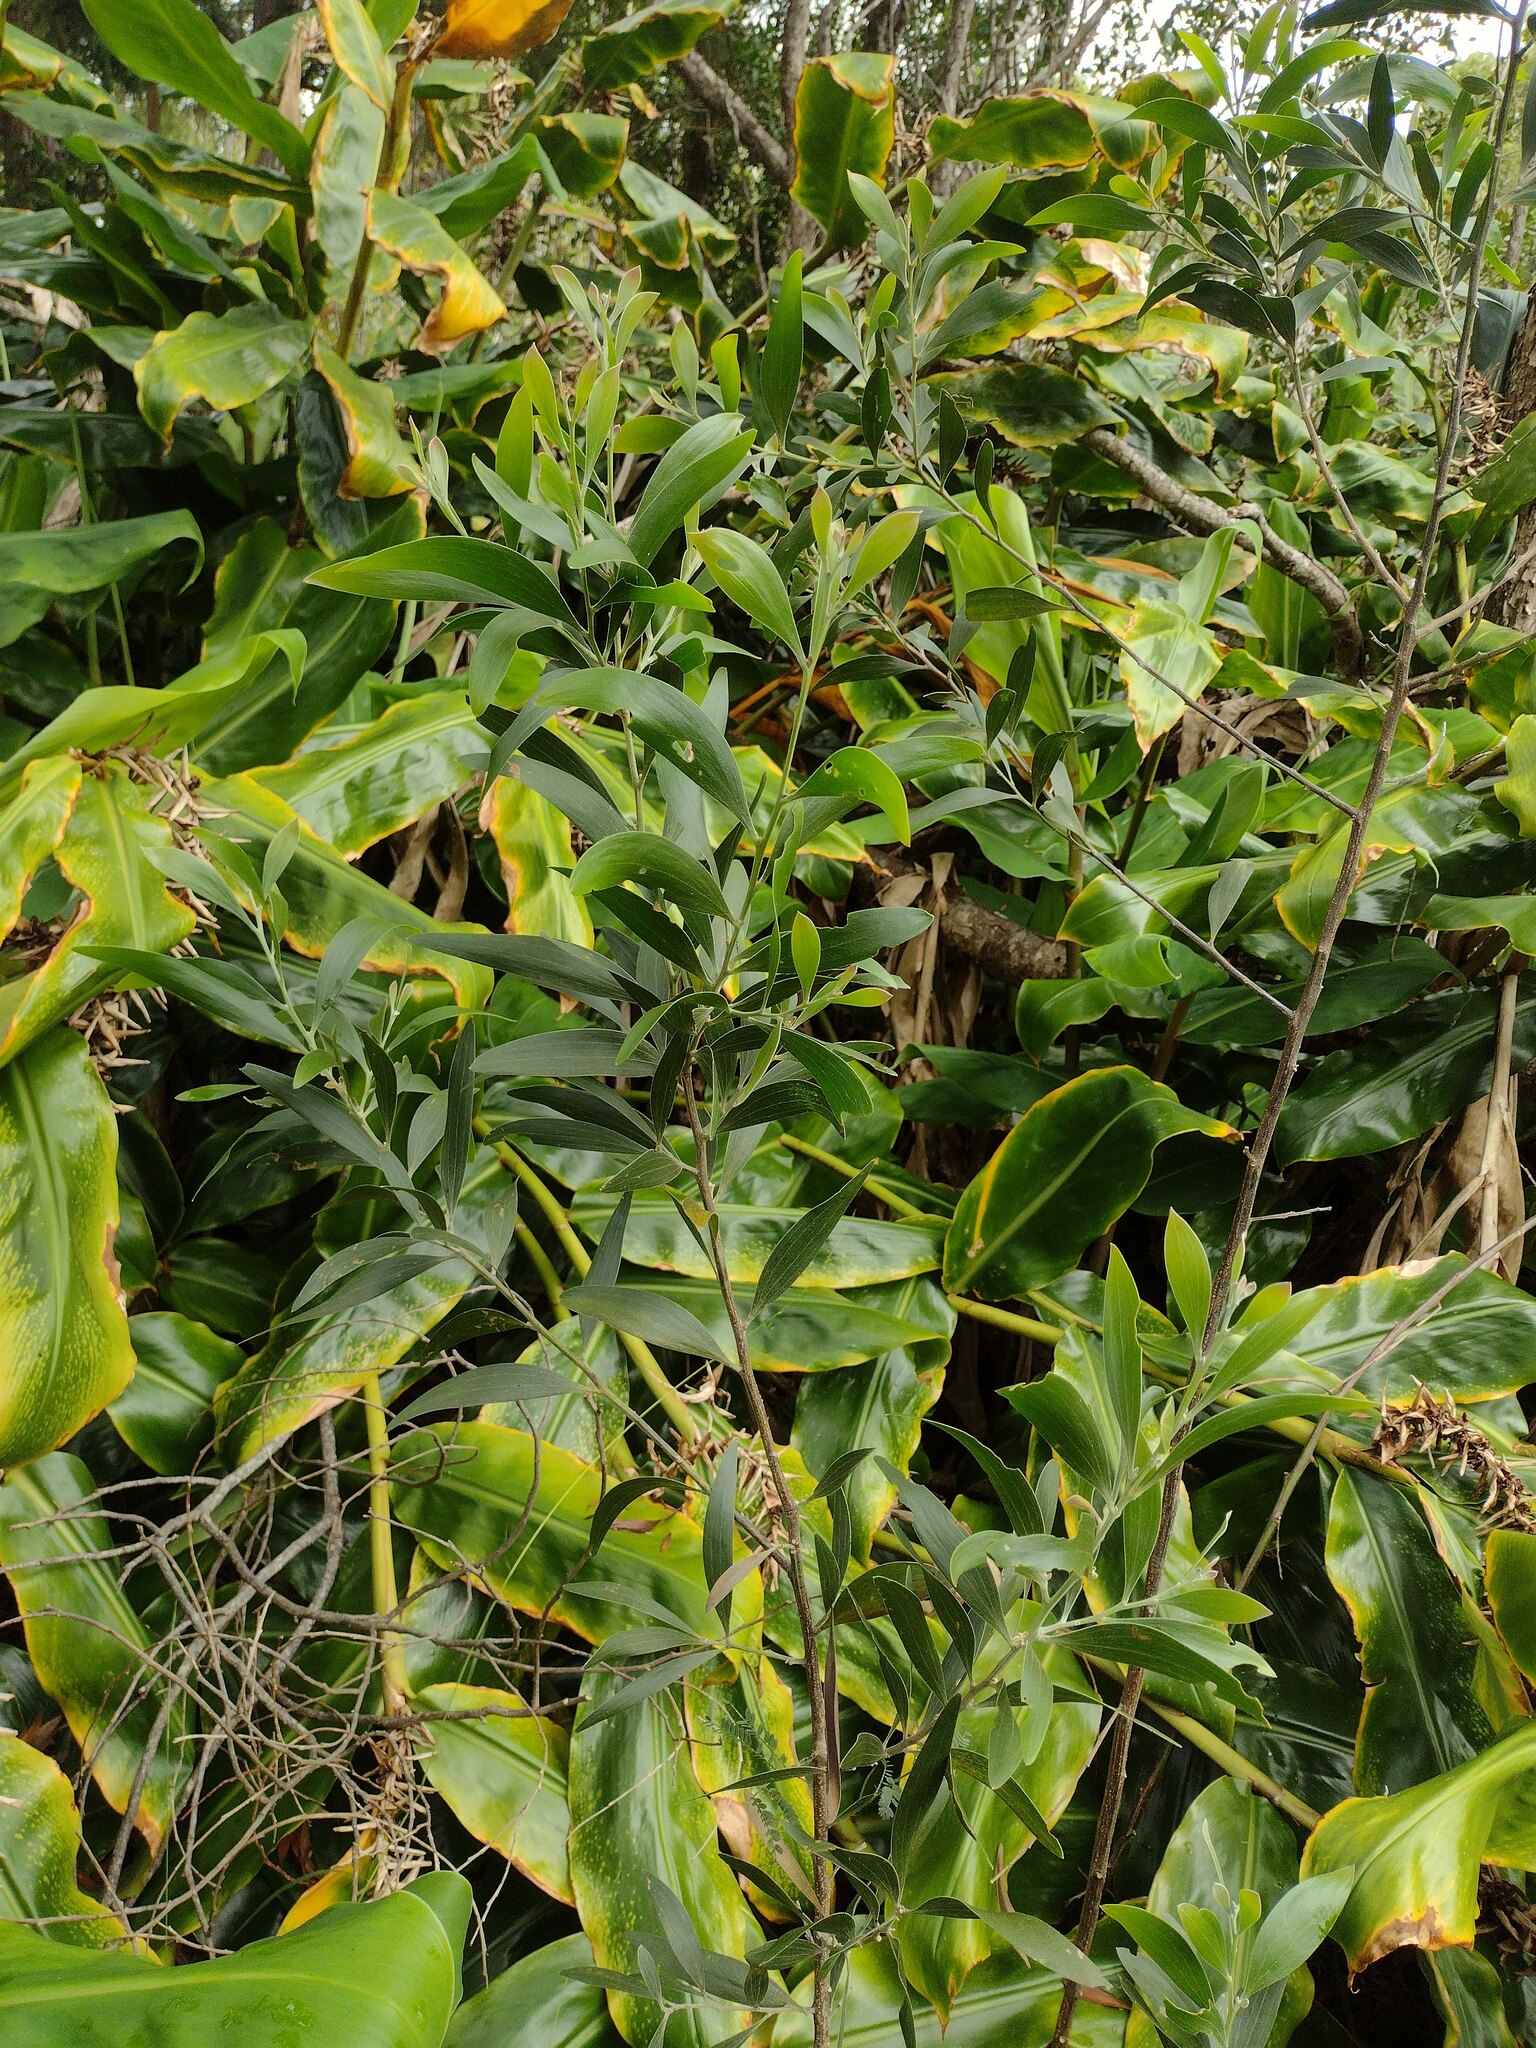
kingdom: Plantae
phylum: Tracheophyta
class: Magnoliopsida
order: Fabales
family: Fabaceae
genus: Acacia
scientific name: Acacia melanoxylon
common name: Blackwood
